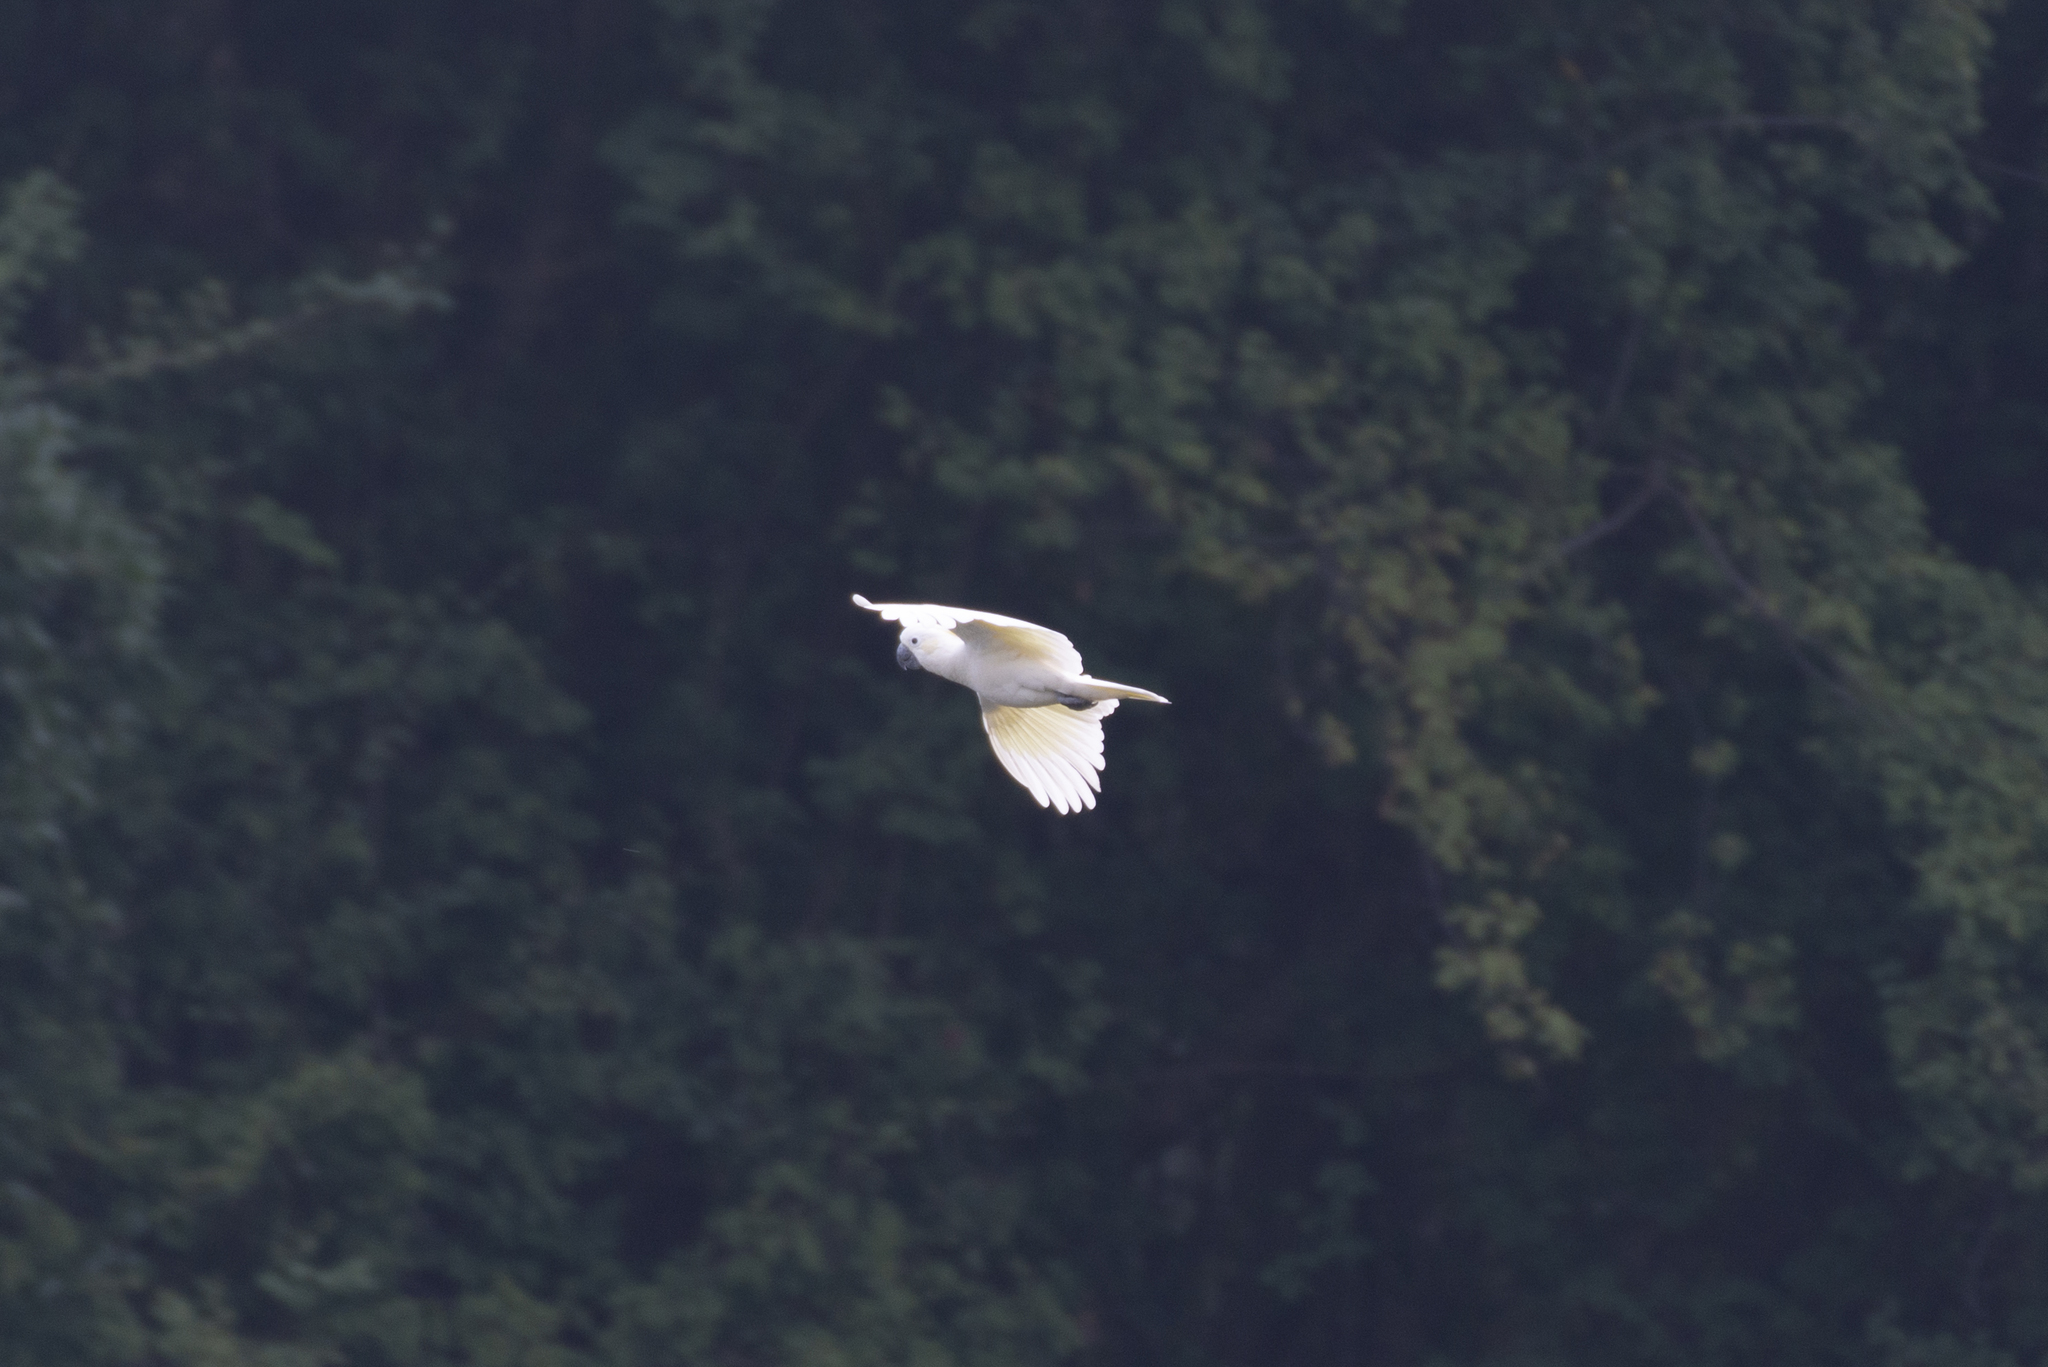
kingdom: Animalia
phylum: Chordata
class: Aves
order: Psittaciformes
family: Psittacidae
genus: Cacatua
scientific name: Cacatua sulphurea
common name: Yellow-crested cockatoo
